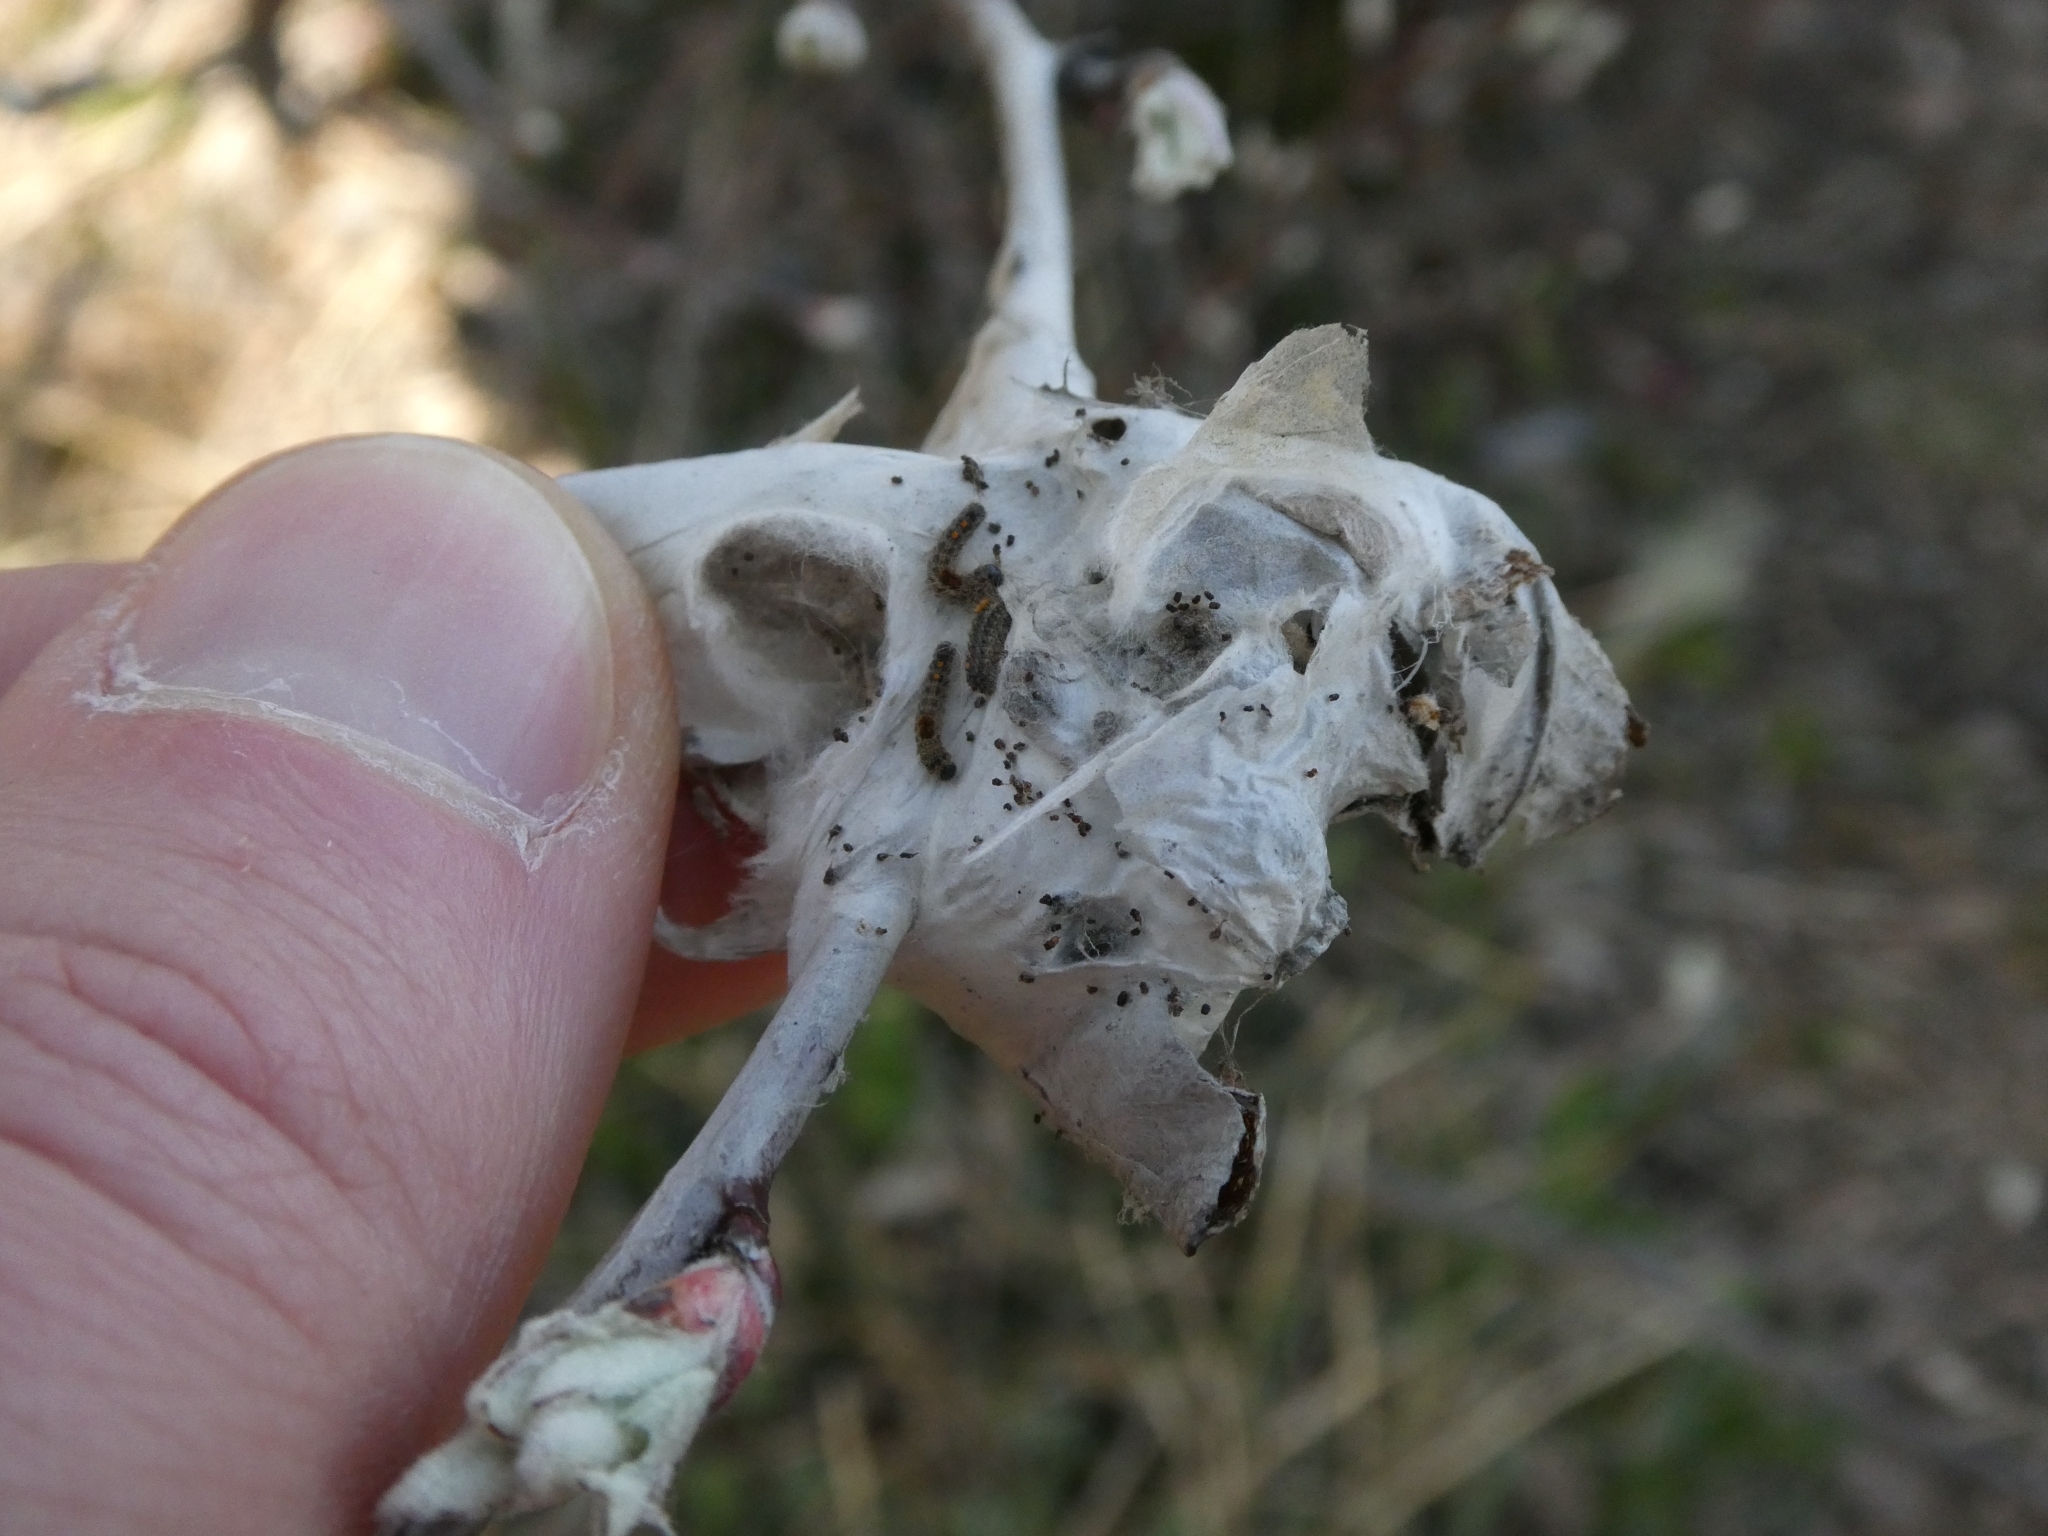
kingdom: Animalia
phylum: Arthropoda
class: Insecta
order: Lepidoptera
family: Erebidae
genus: Euproctis
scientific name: Euproctis chrysorrhoea
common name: Brown-tail
